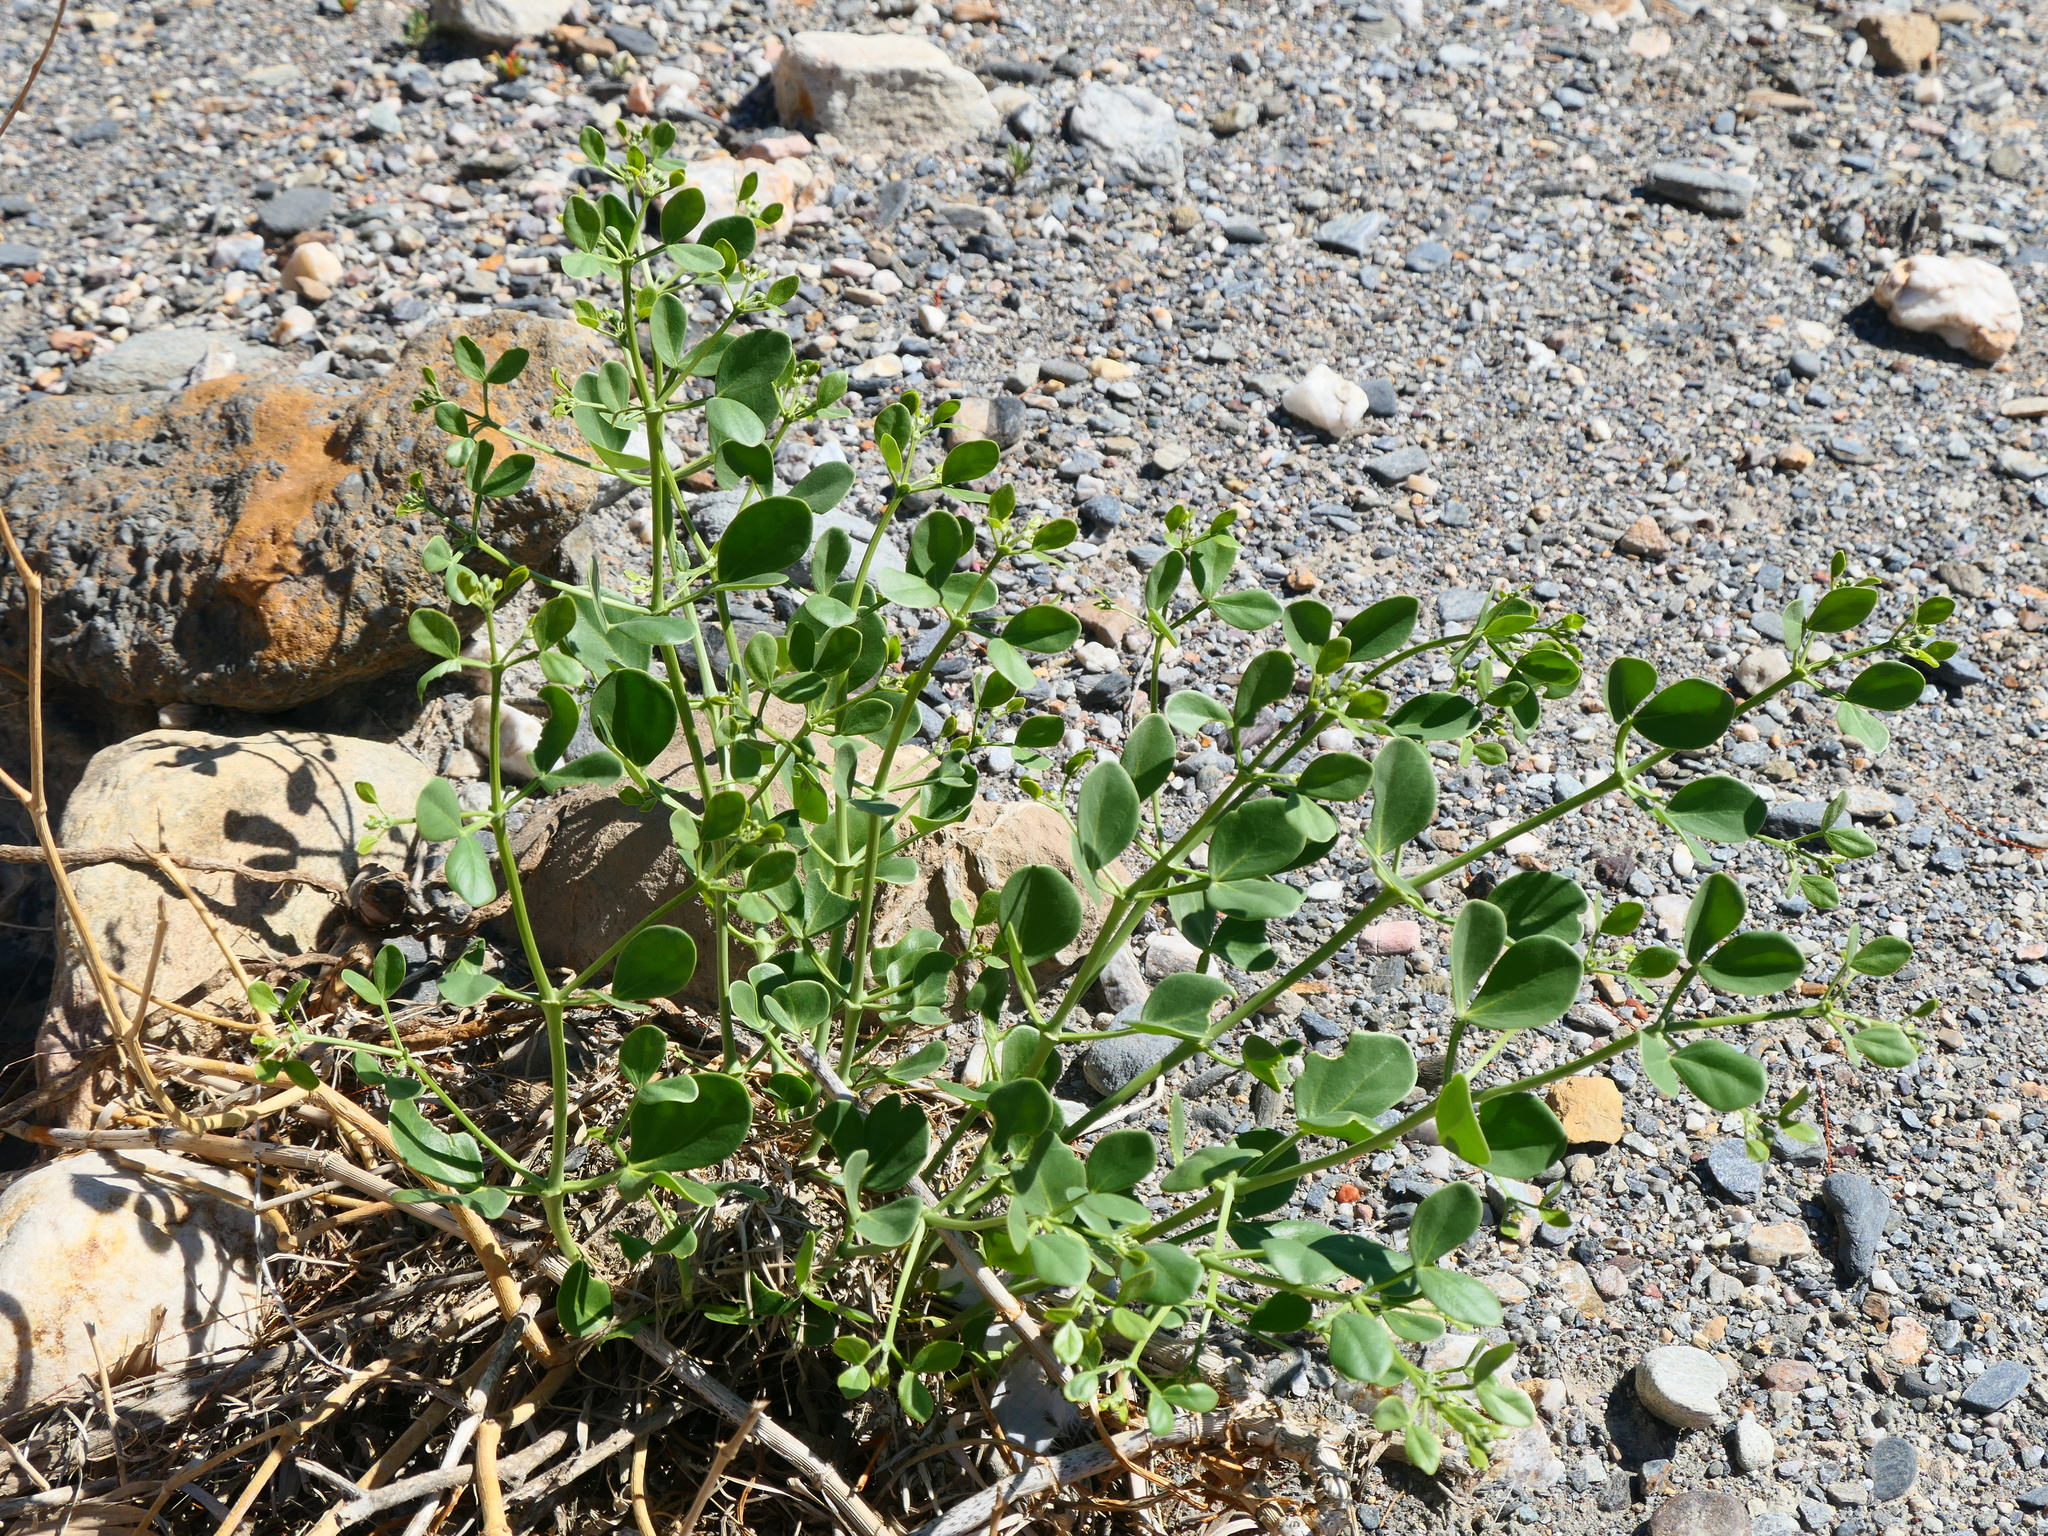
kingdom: Plantae
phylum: Tracheophyta
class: Magnoliopsida
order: Zygophyllales
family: Zygophyllaceae
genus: Zygophyllum
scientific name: Zygophyllum fabago
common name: Syrian beancaper
